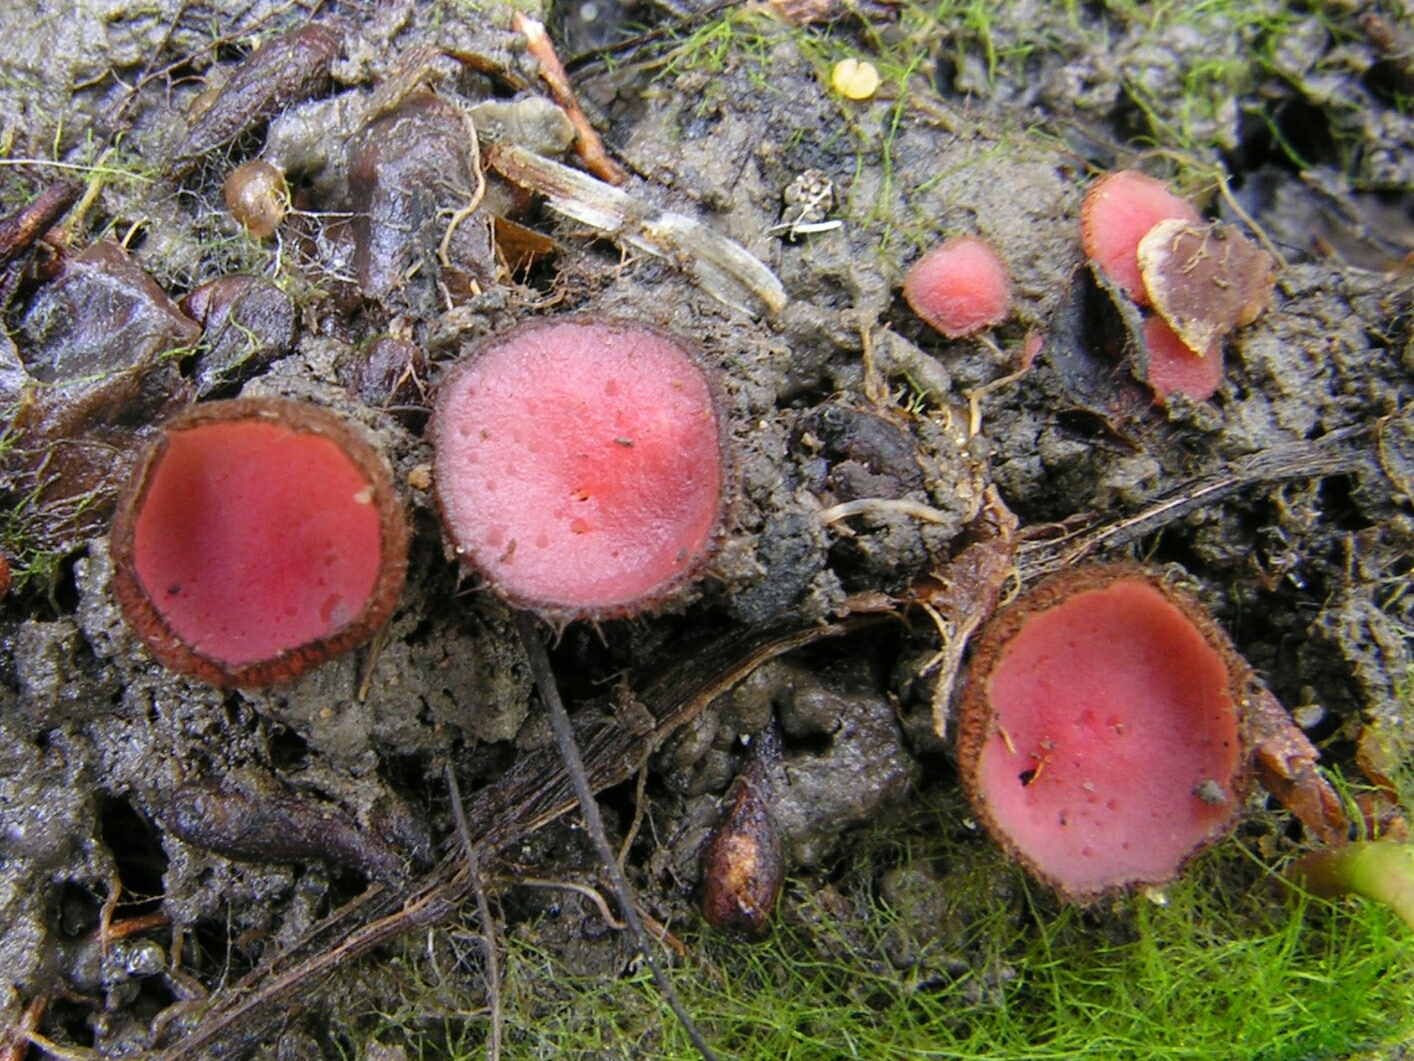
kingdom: Fungi
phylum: Ascomycota
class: Pezizomycetes
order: Pezizales
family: Pyronemataceae
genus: Parascutellinia
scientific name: Parascutellinia carneosanguinea
